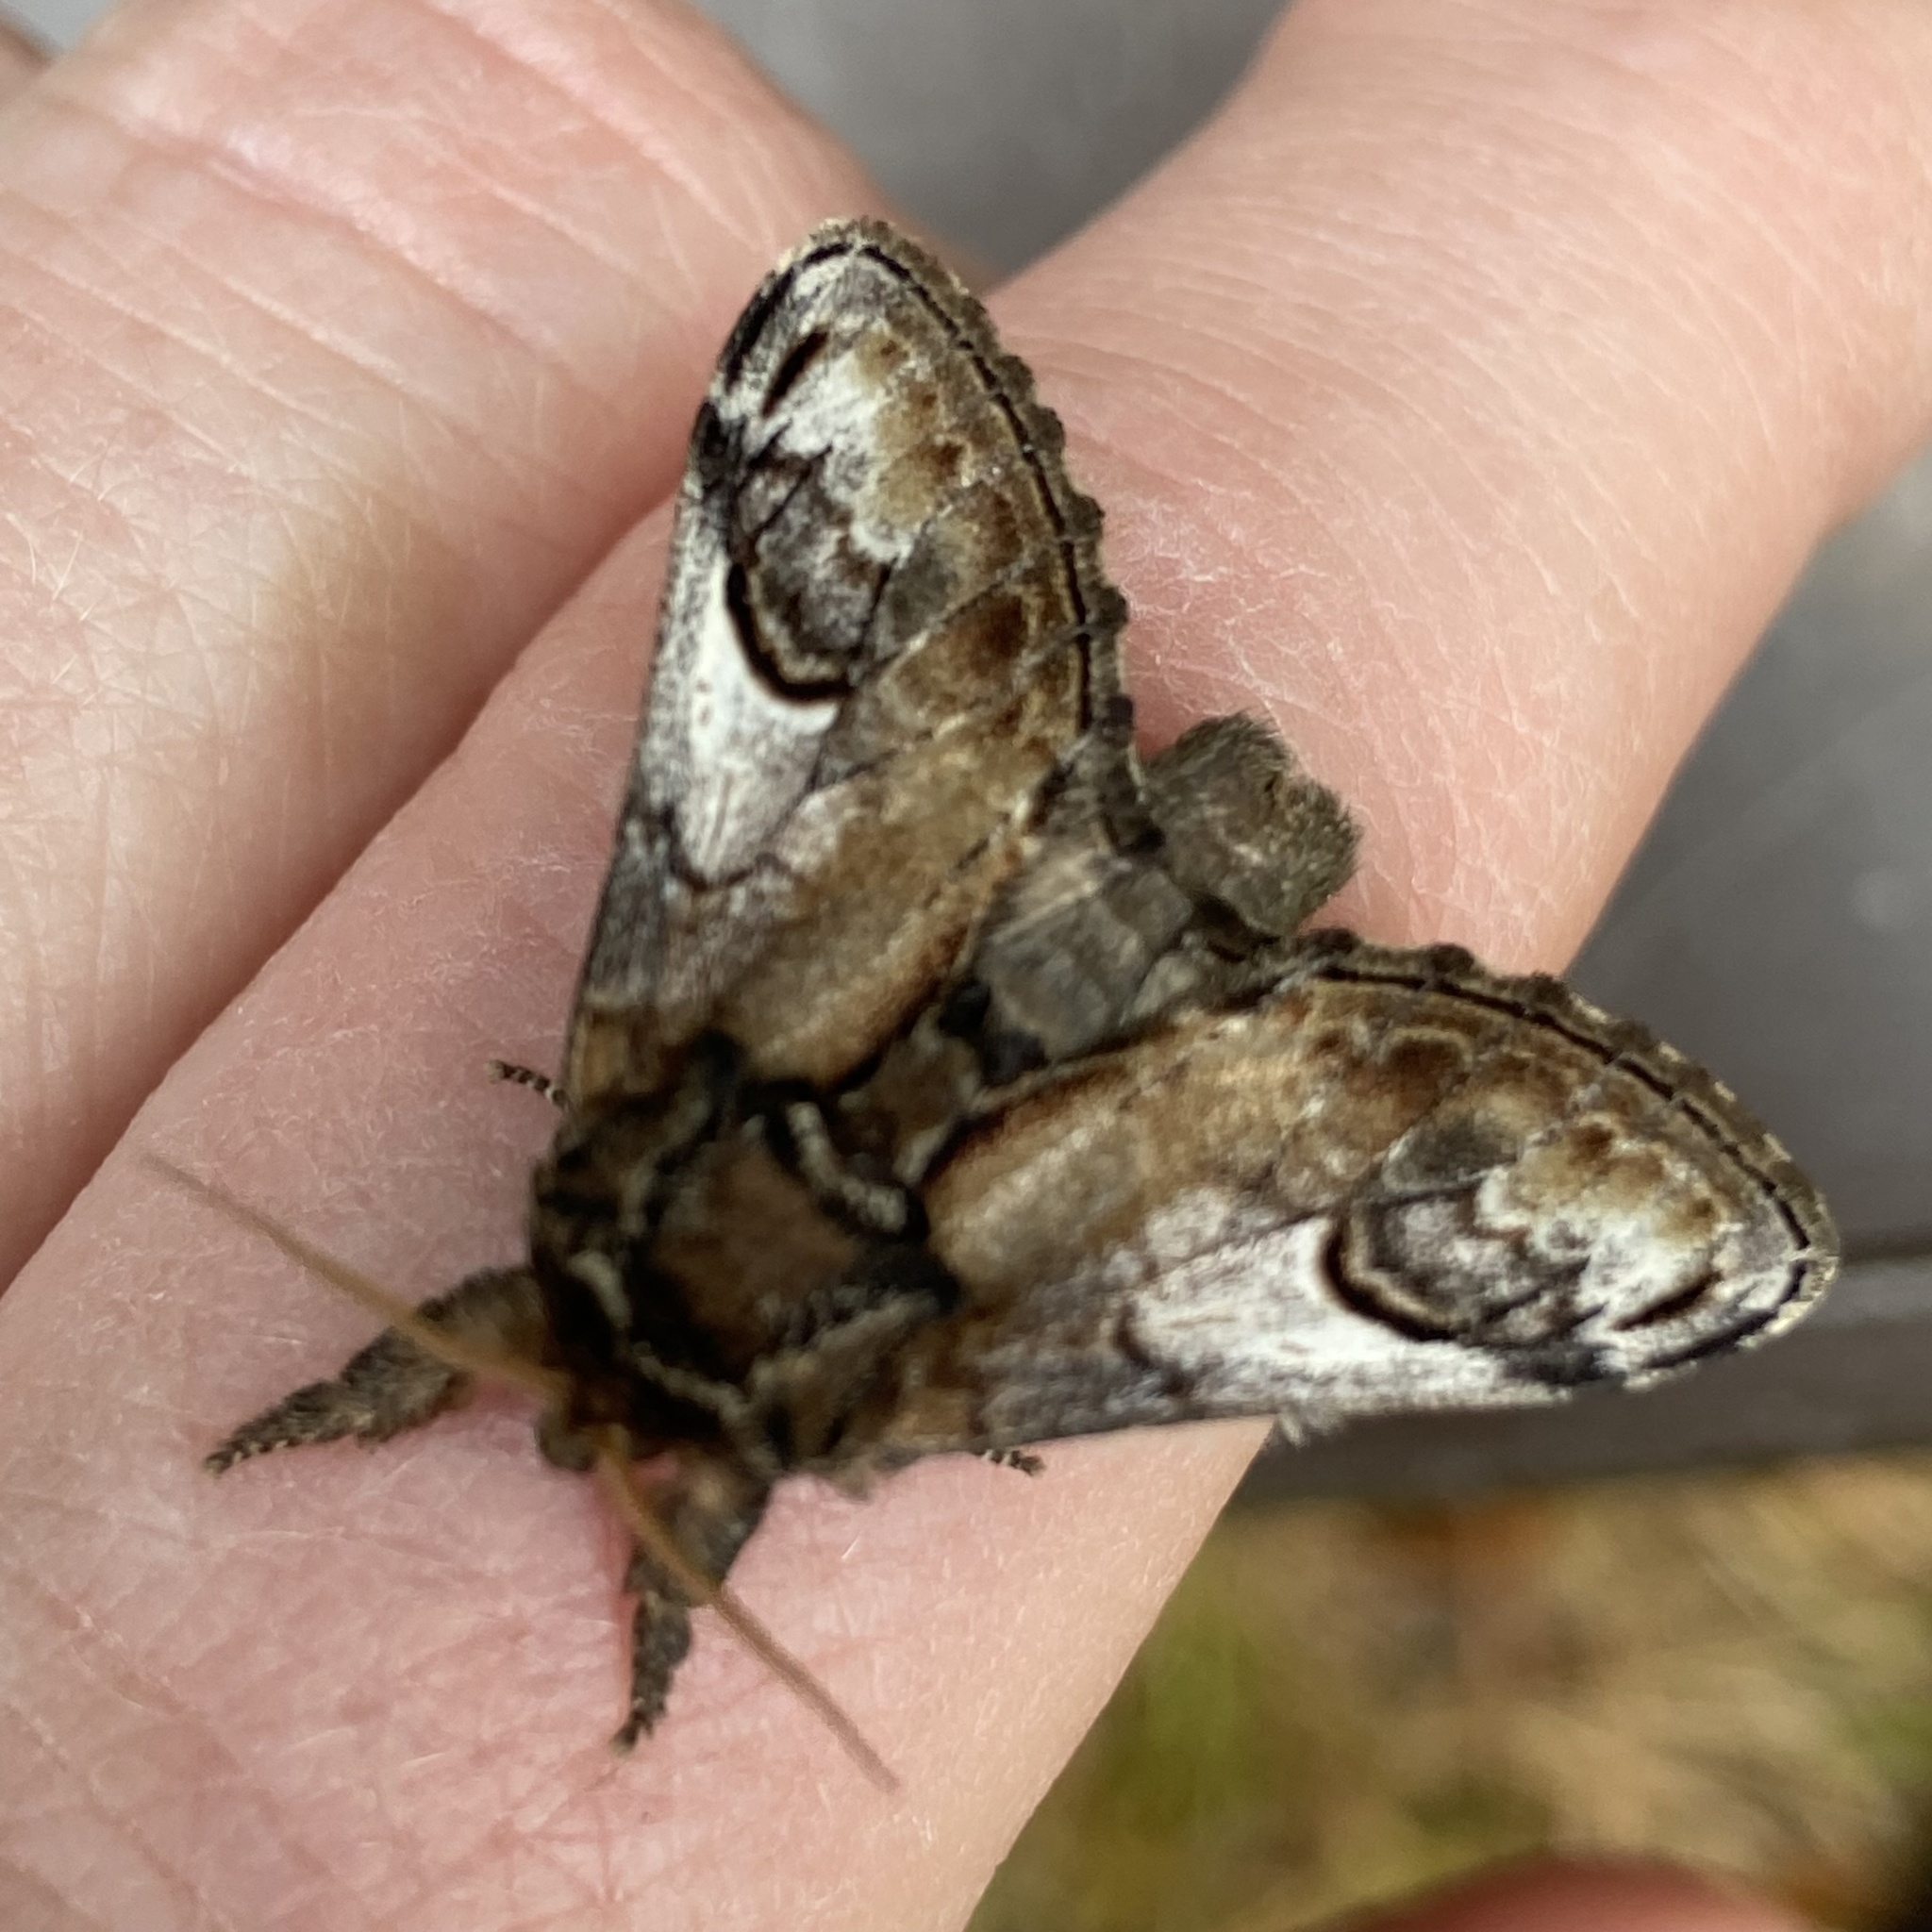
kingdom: Animalia
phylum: Arthropoda
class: Insecta
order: Lepidoptera
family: Notodontidae
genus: Notodonta
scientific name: Notodonta ziczac
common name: Pebble prominent
